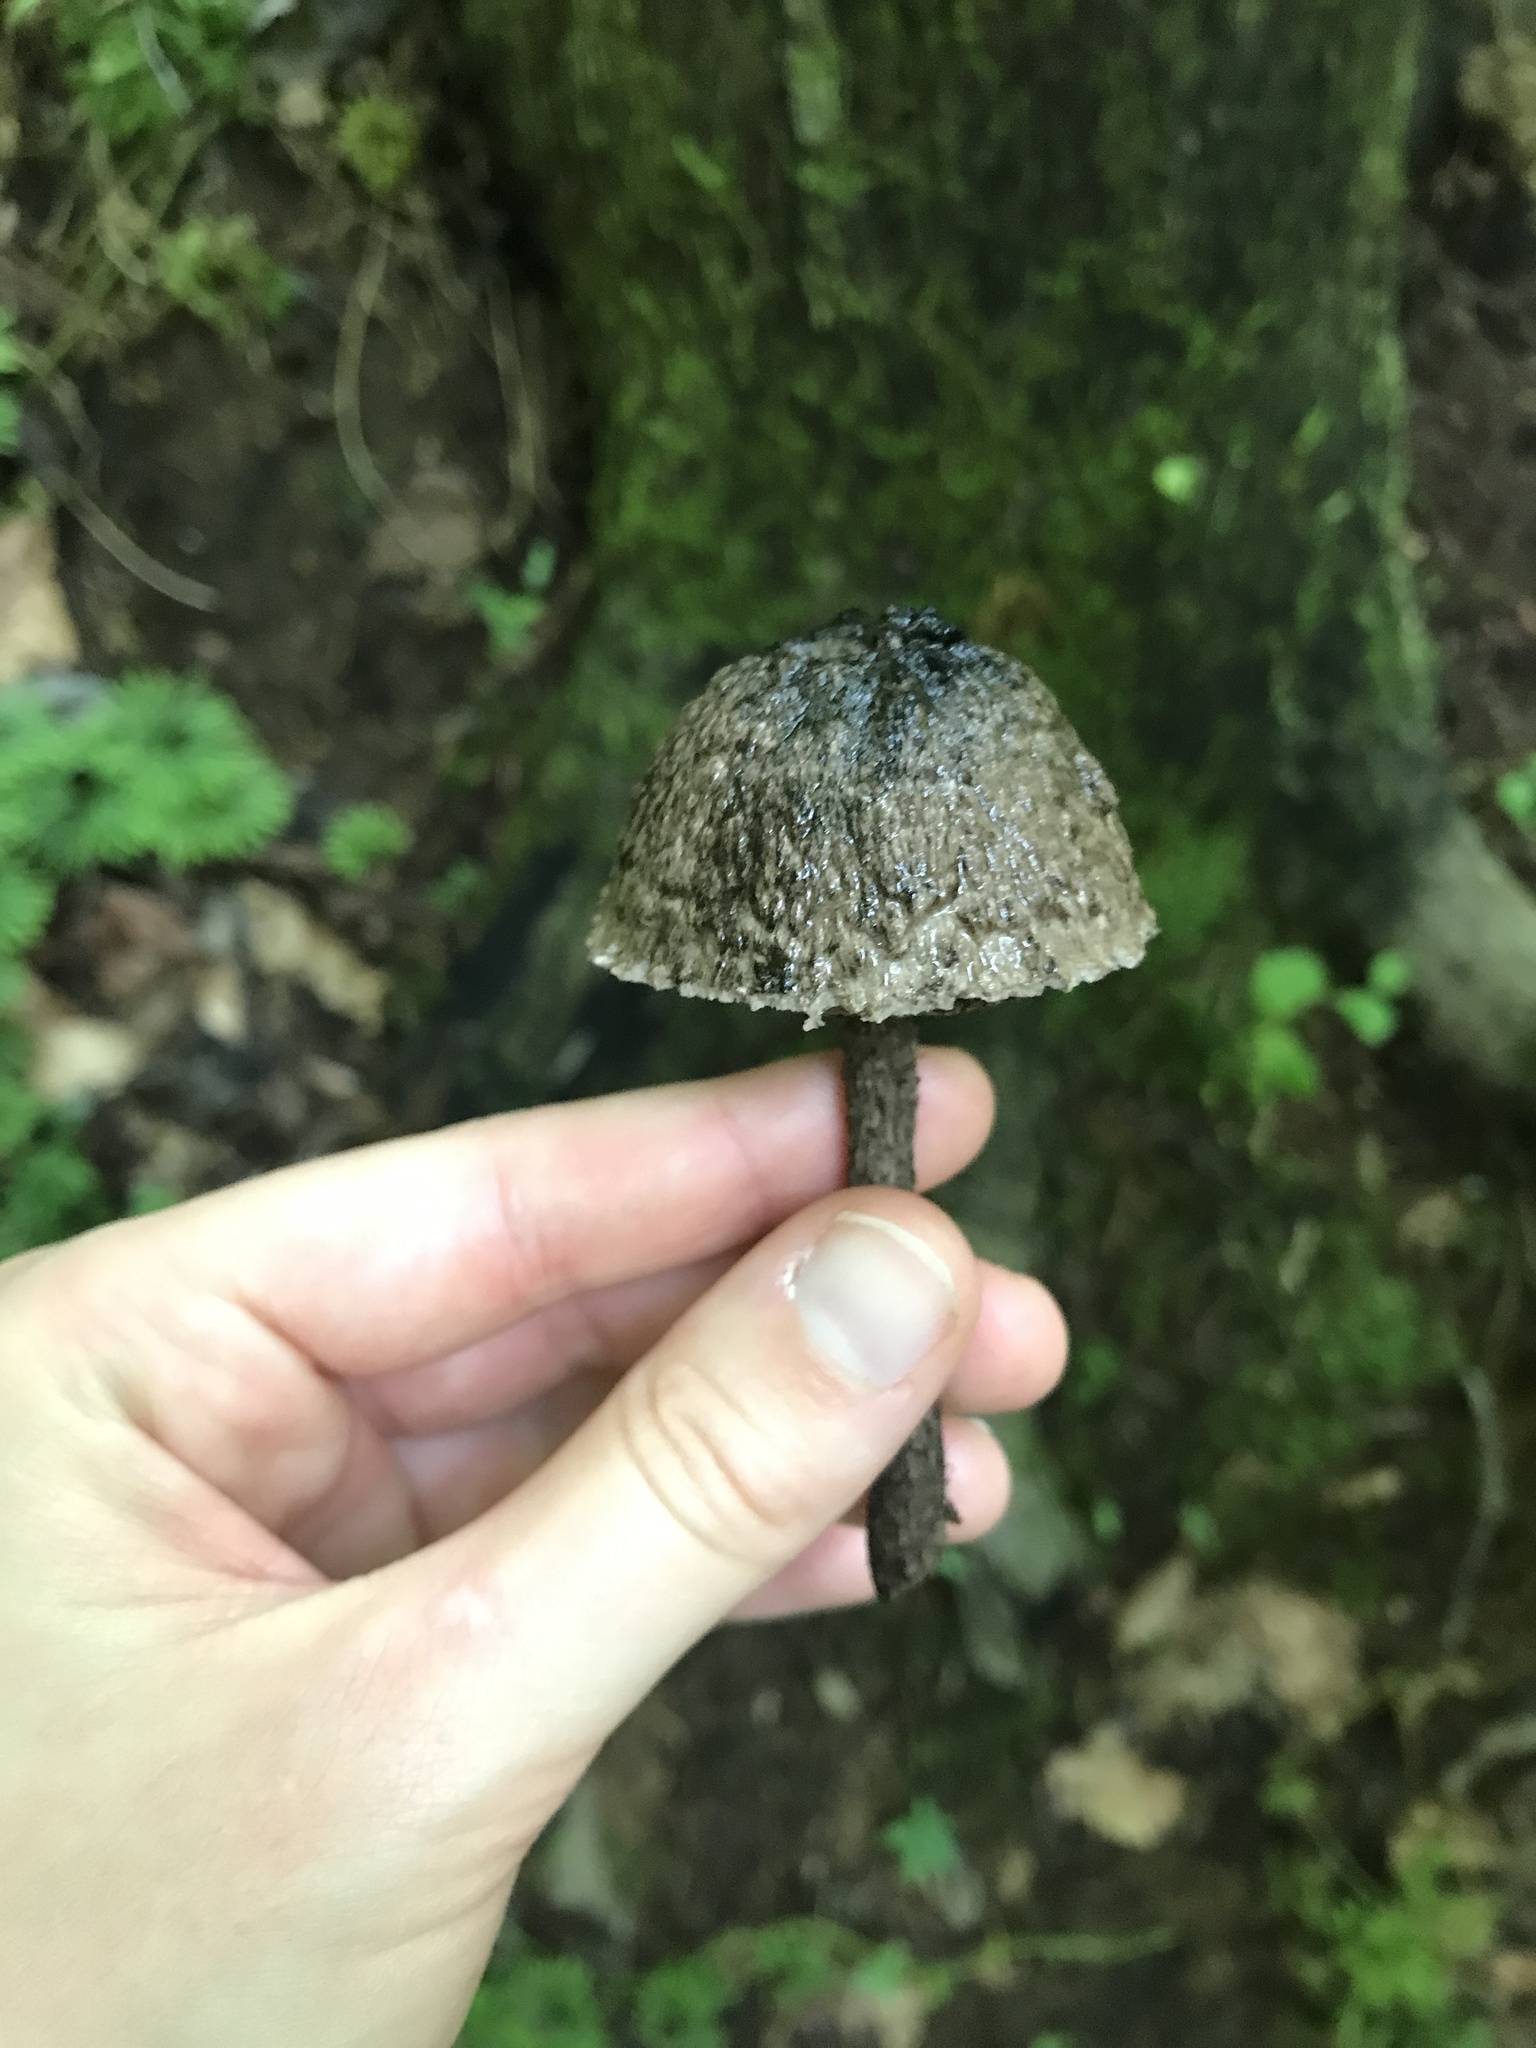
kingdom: Fungi
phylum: Basidiomycota
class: Agaricomycetes
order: Boletales
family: Boletaceae
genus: Strobilomyces
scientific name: Strobilomyces strobilaceus
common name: Old man of the woods
